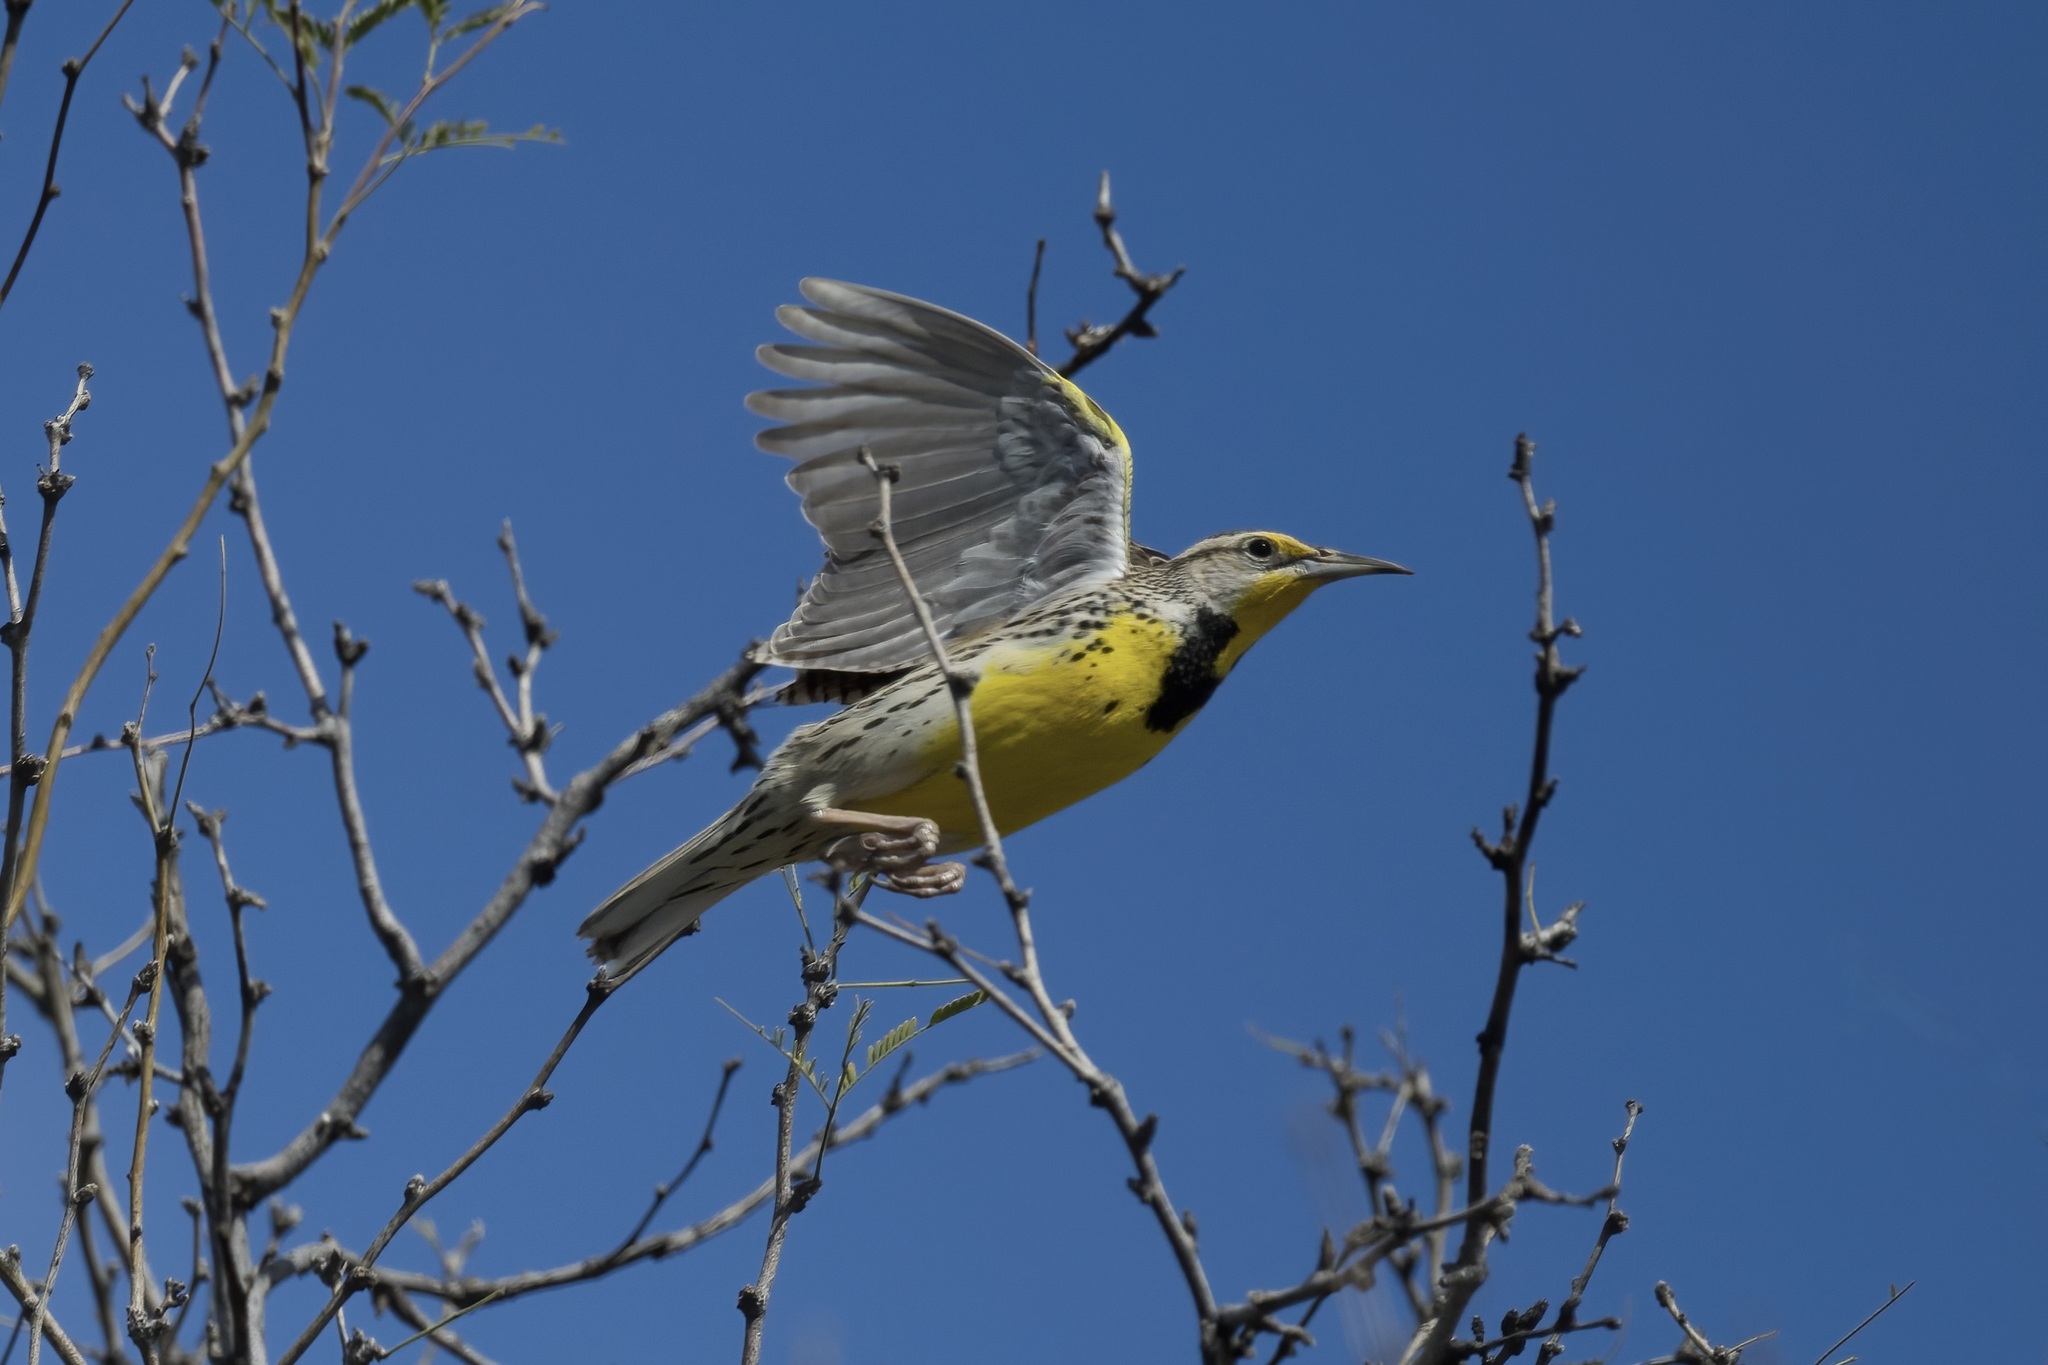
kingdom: Animalia
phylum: Chordata
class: Aves
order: Passeriformes
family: Icteridae
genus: Sturnella
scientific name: Sturnella neglecta
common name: Western meadowlark
